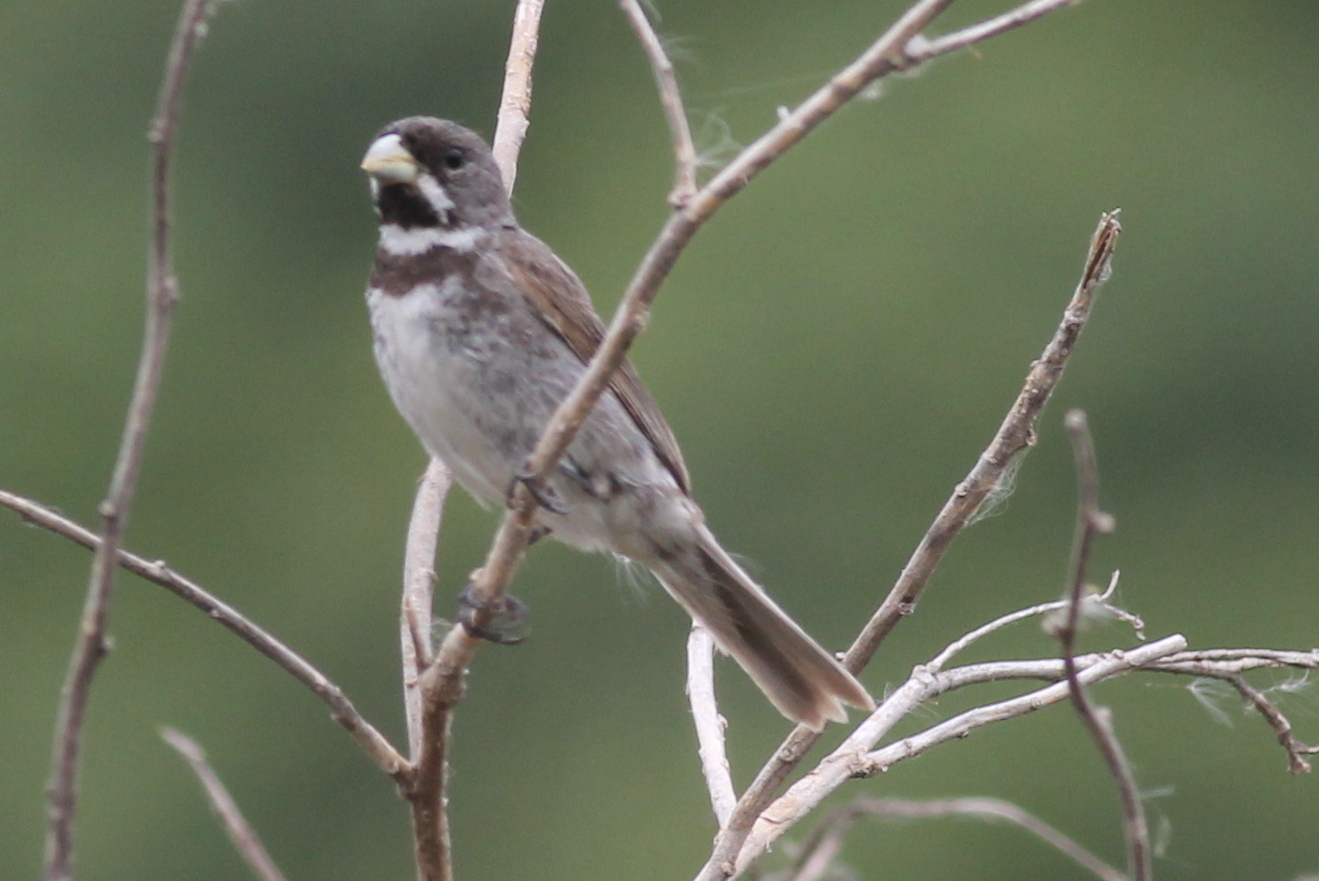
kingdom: Animalia
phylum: Chordata
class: Aves
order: Passeriformes
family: Thraupidae
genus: Sporophila
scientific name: Sporophila caerulescens
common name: Double-collared seedeater
